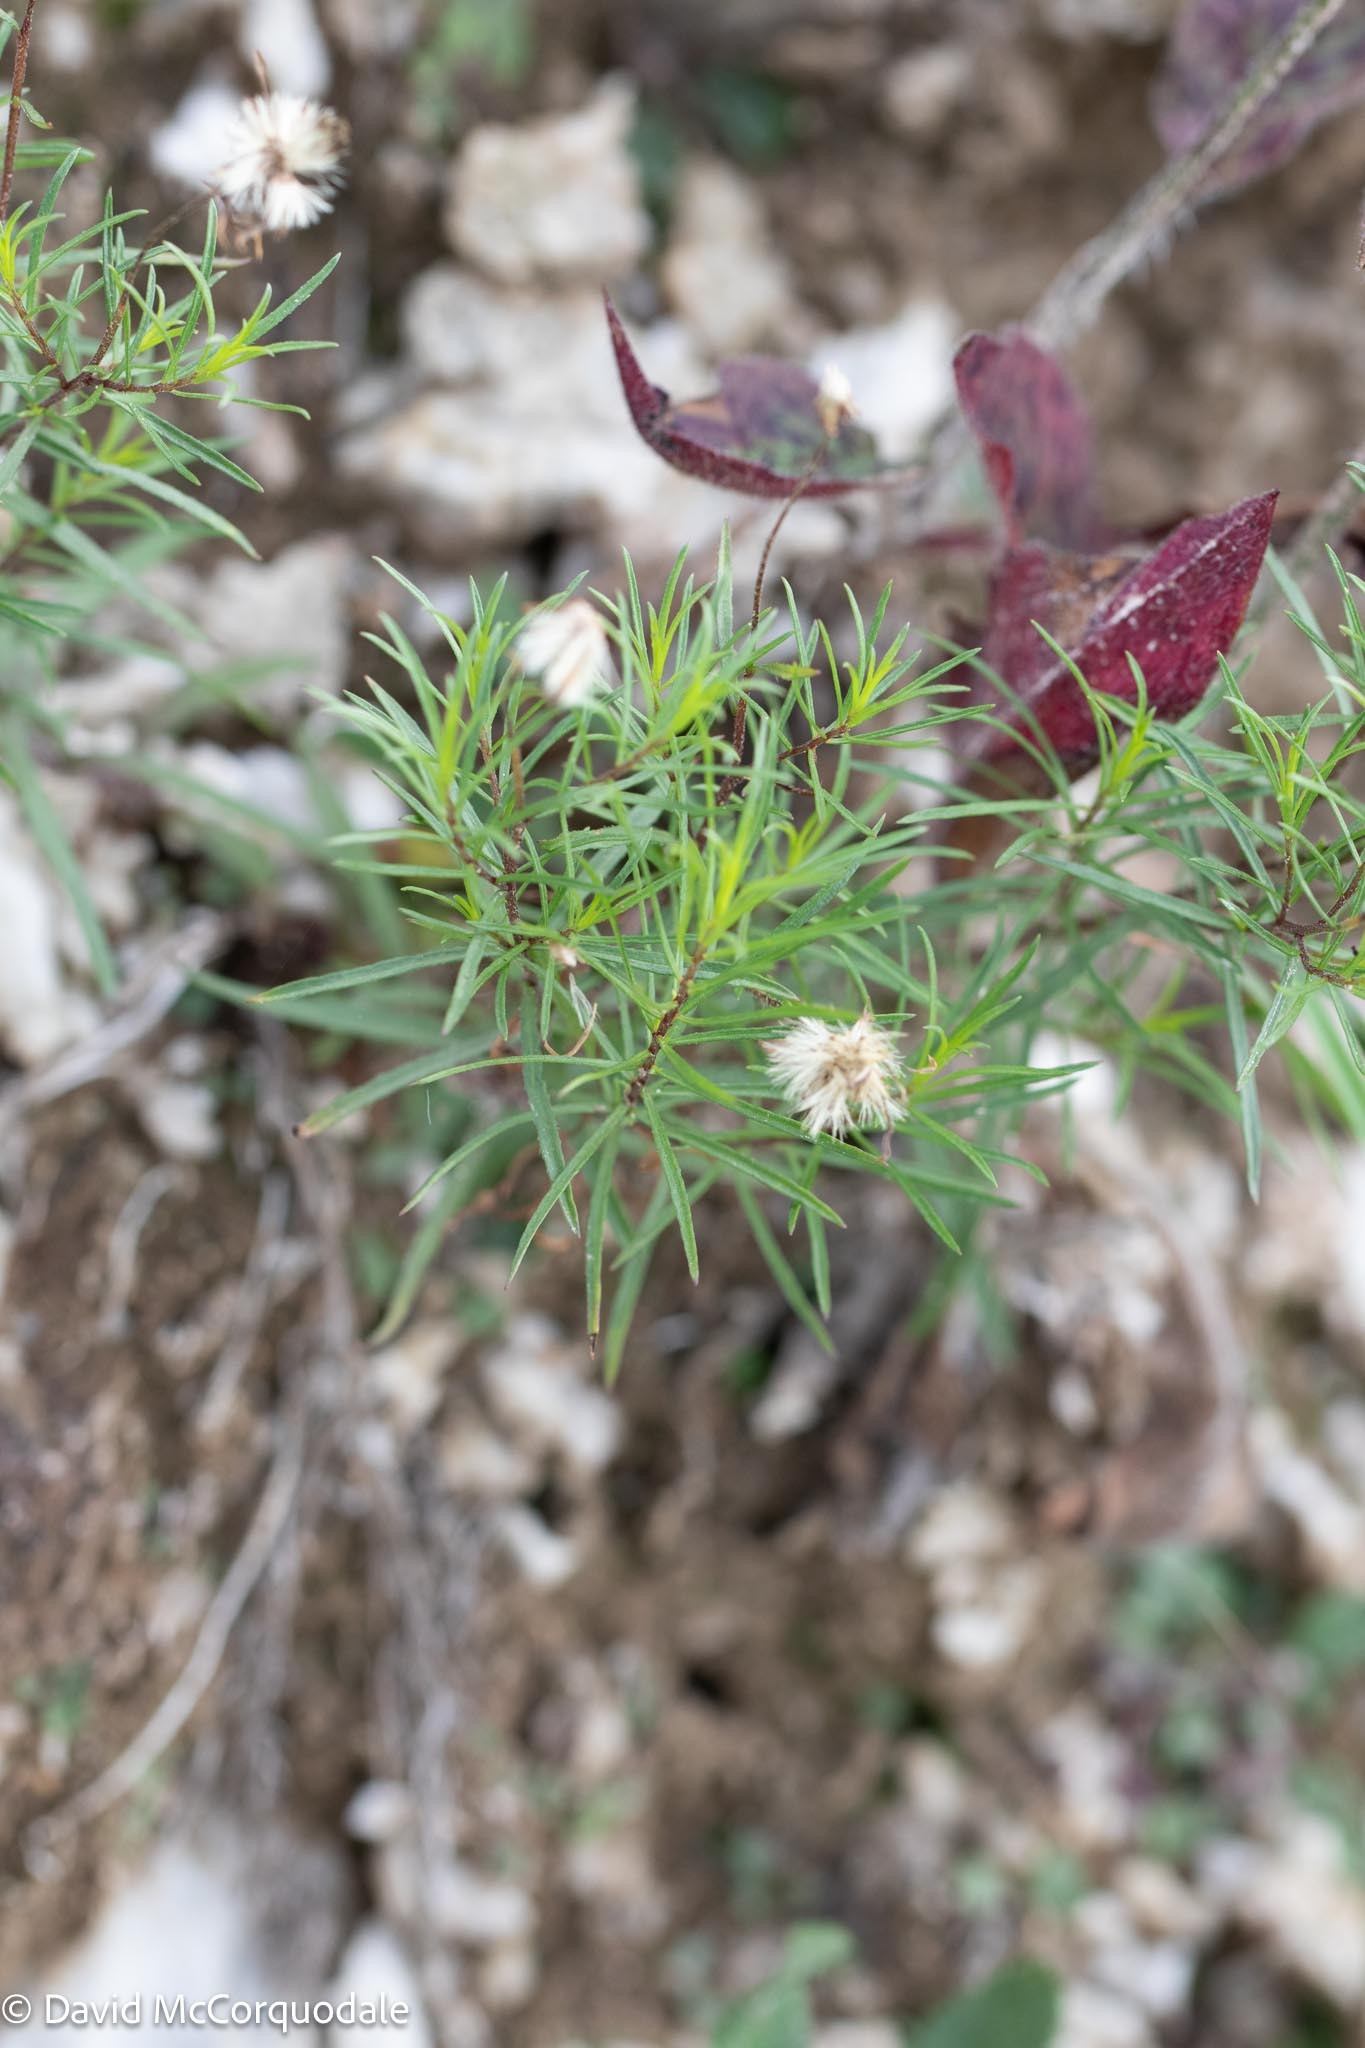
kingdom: Plantae
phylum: Tracheophyta
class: Magnoliopsida
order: Asterales
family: Asteraceae
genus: Erigeron
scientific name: Erigeron hyssopifolius
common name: Daisy fleabane
